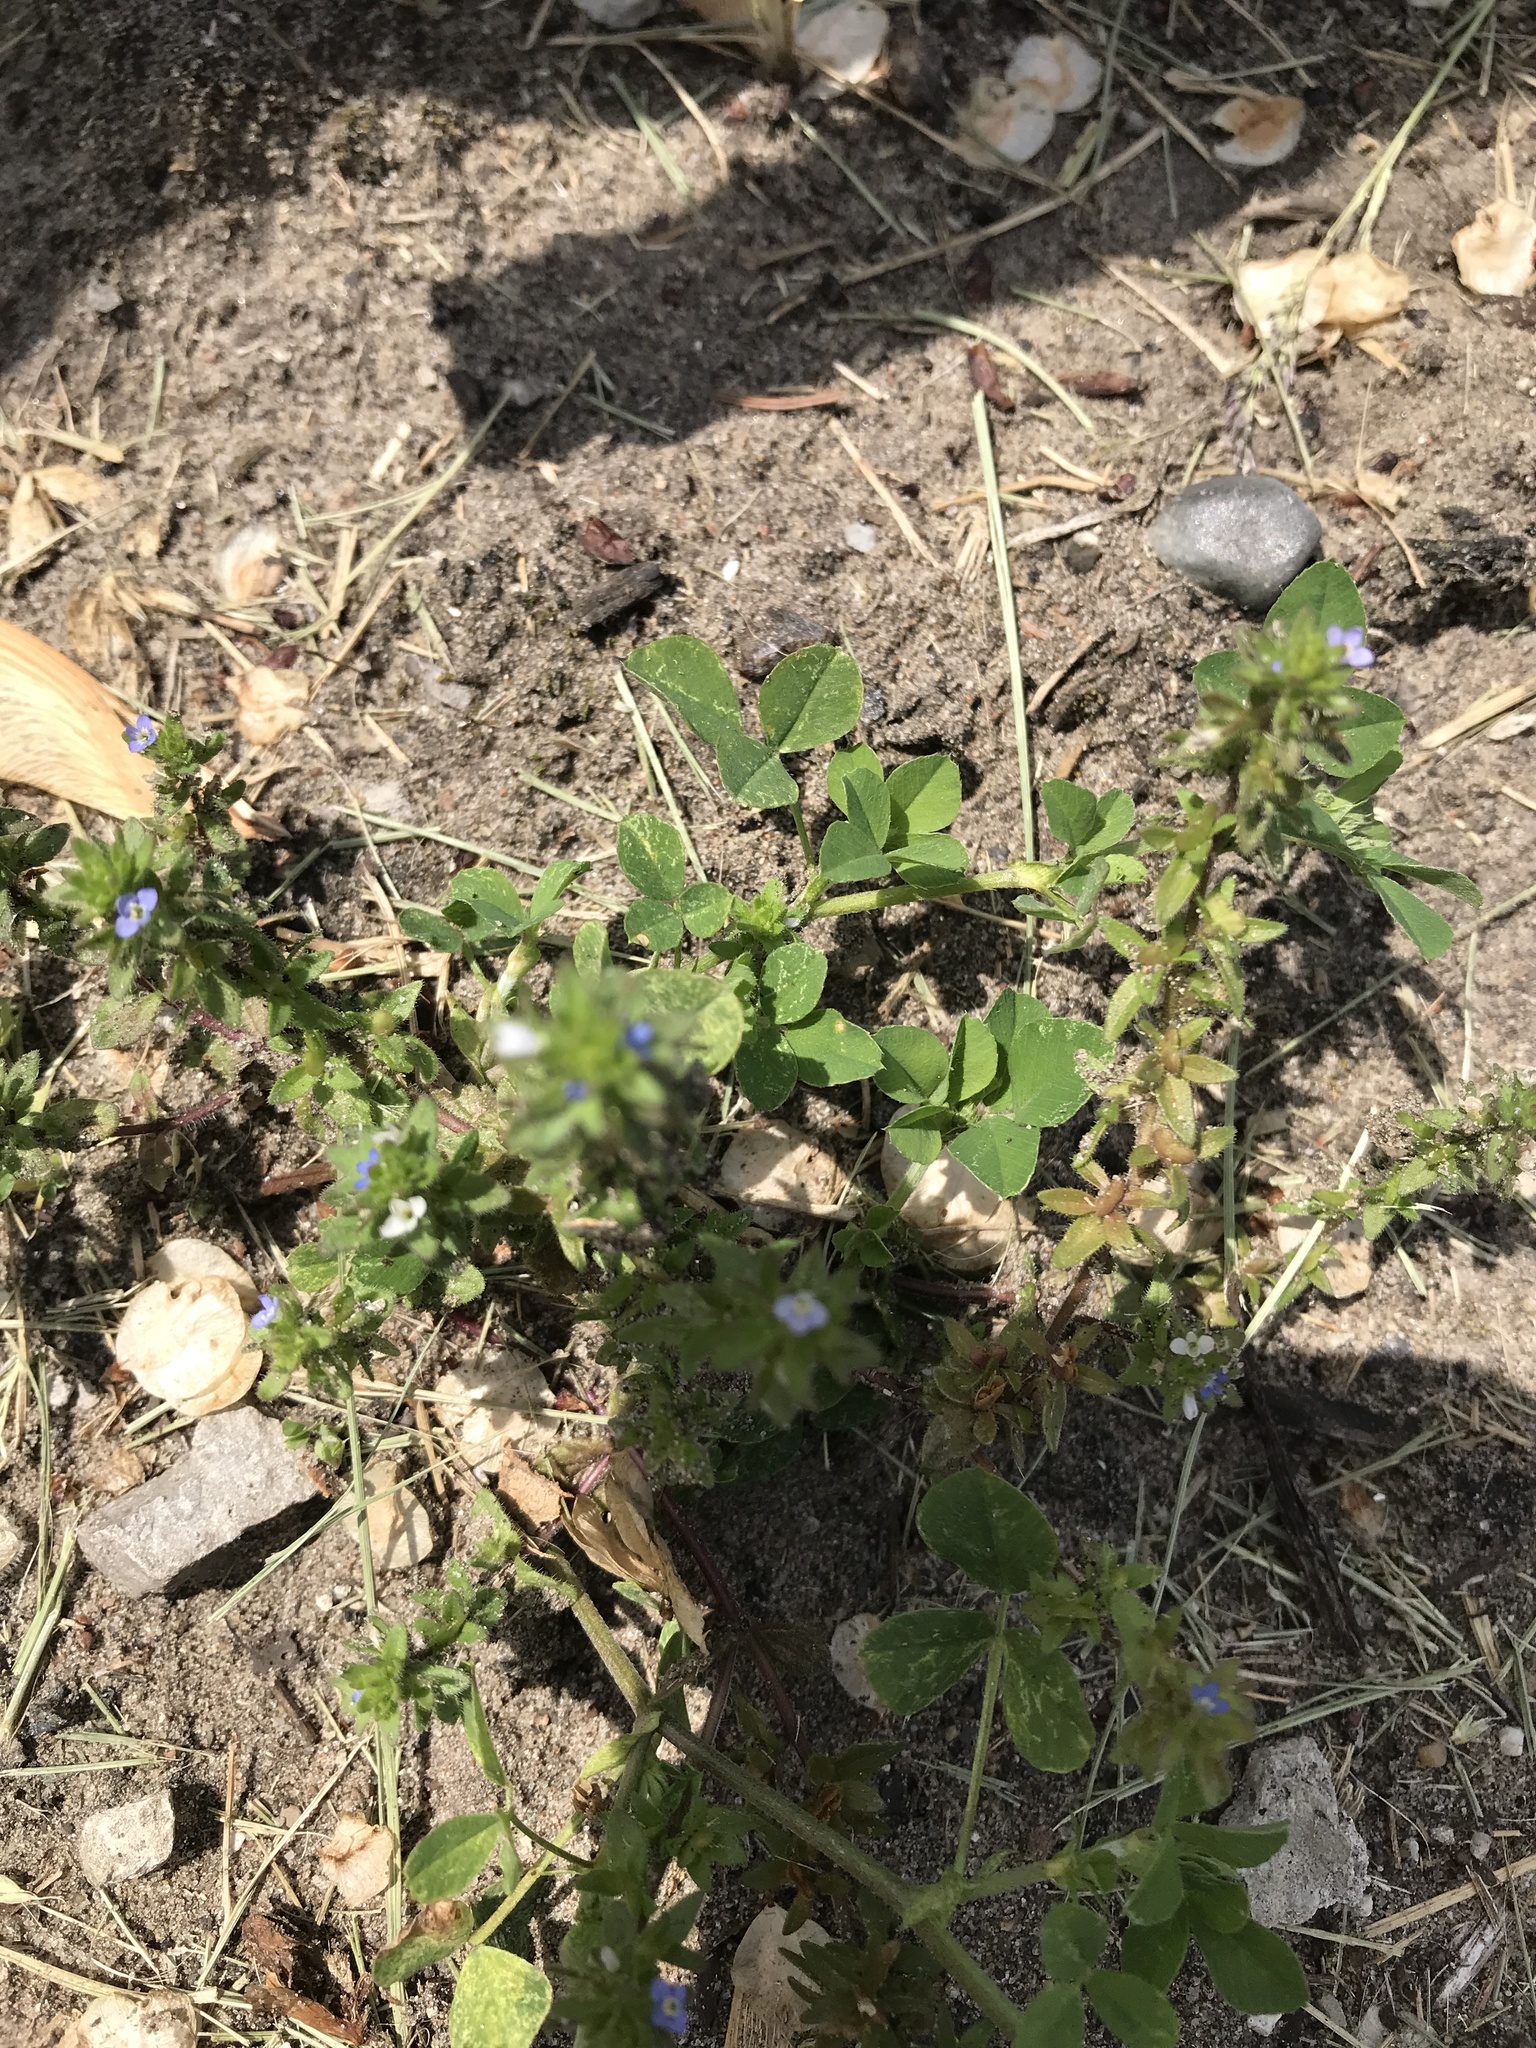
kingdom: Plantae
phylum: Tracheophyta
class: Magnoliopsida
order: Lamiales
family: Plantaginaceae
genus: Veronica
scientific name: Veronica arvensis
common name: Corn speedwell
